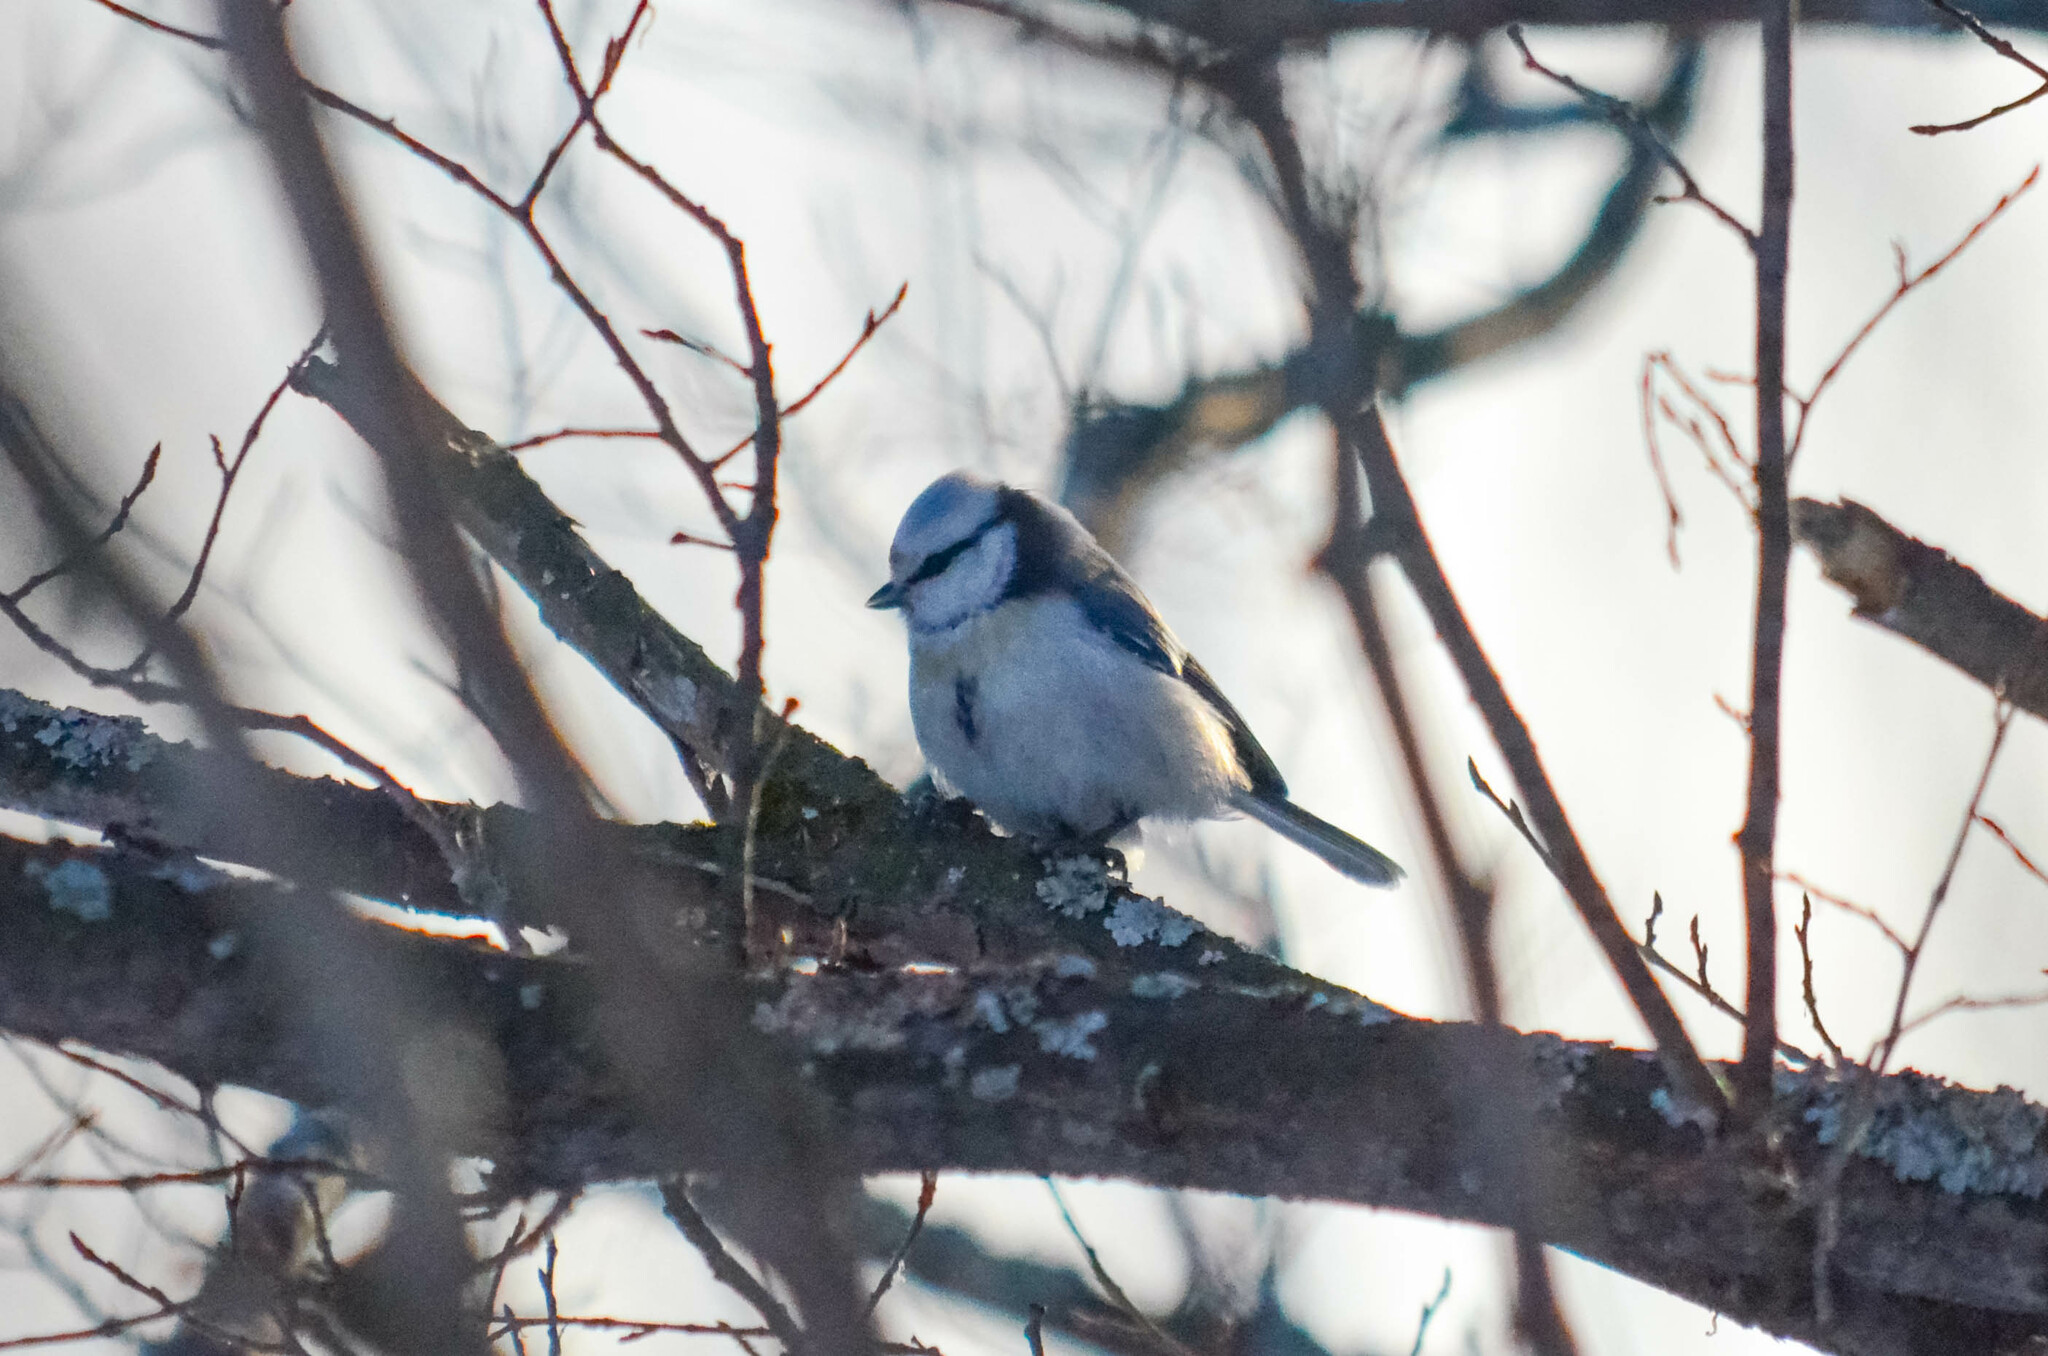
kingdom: Animalia
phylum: Chordata
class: Aves
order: Passeriformes
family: Paridae
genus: Cyanistes
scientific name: Cyanistes
